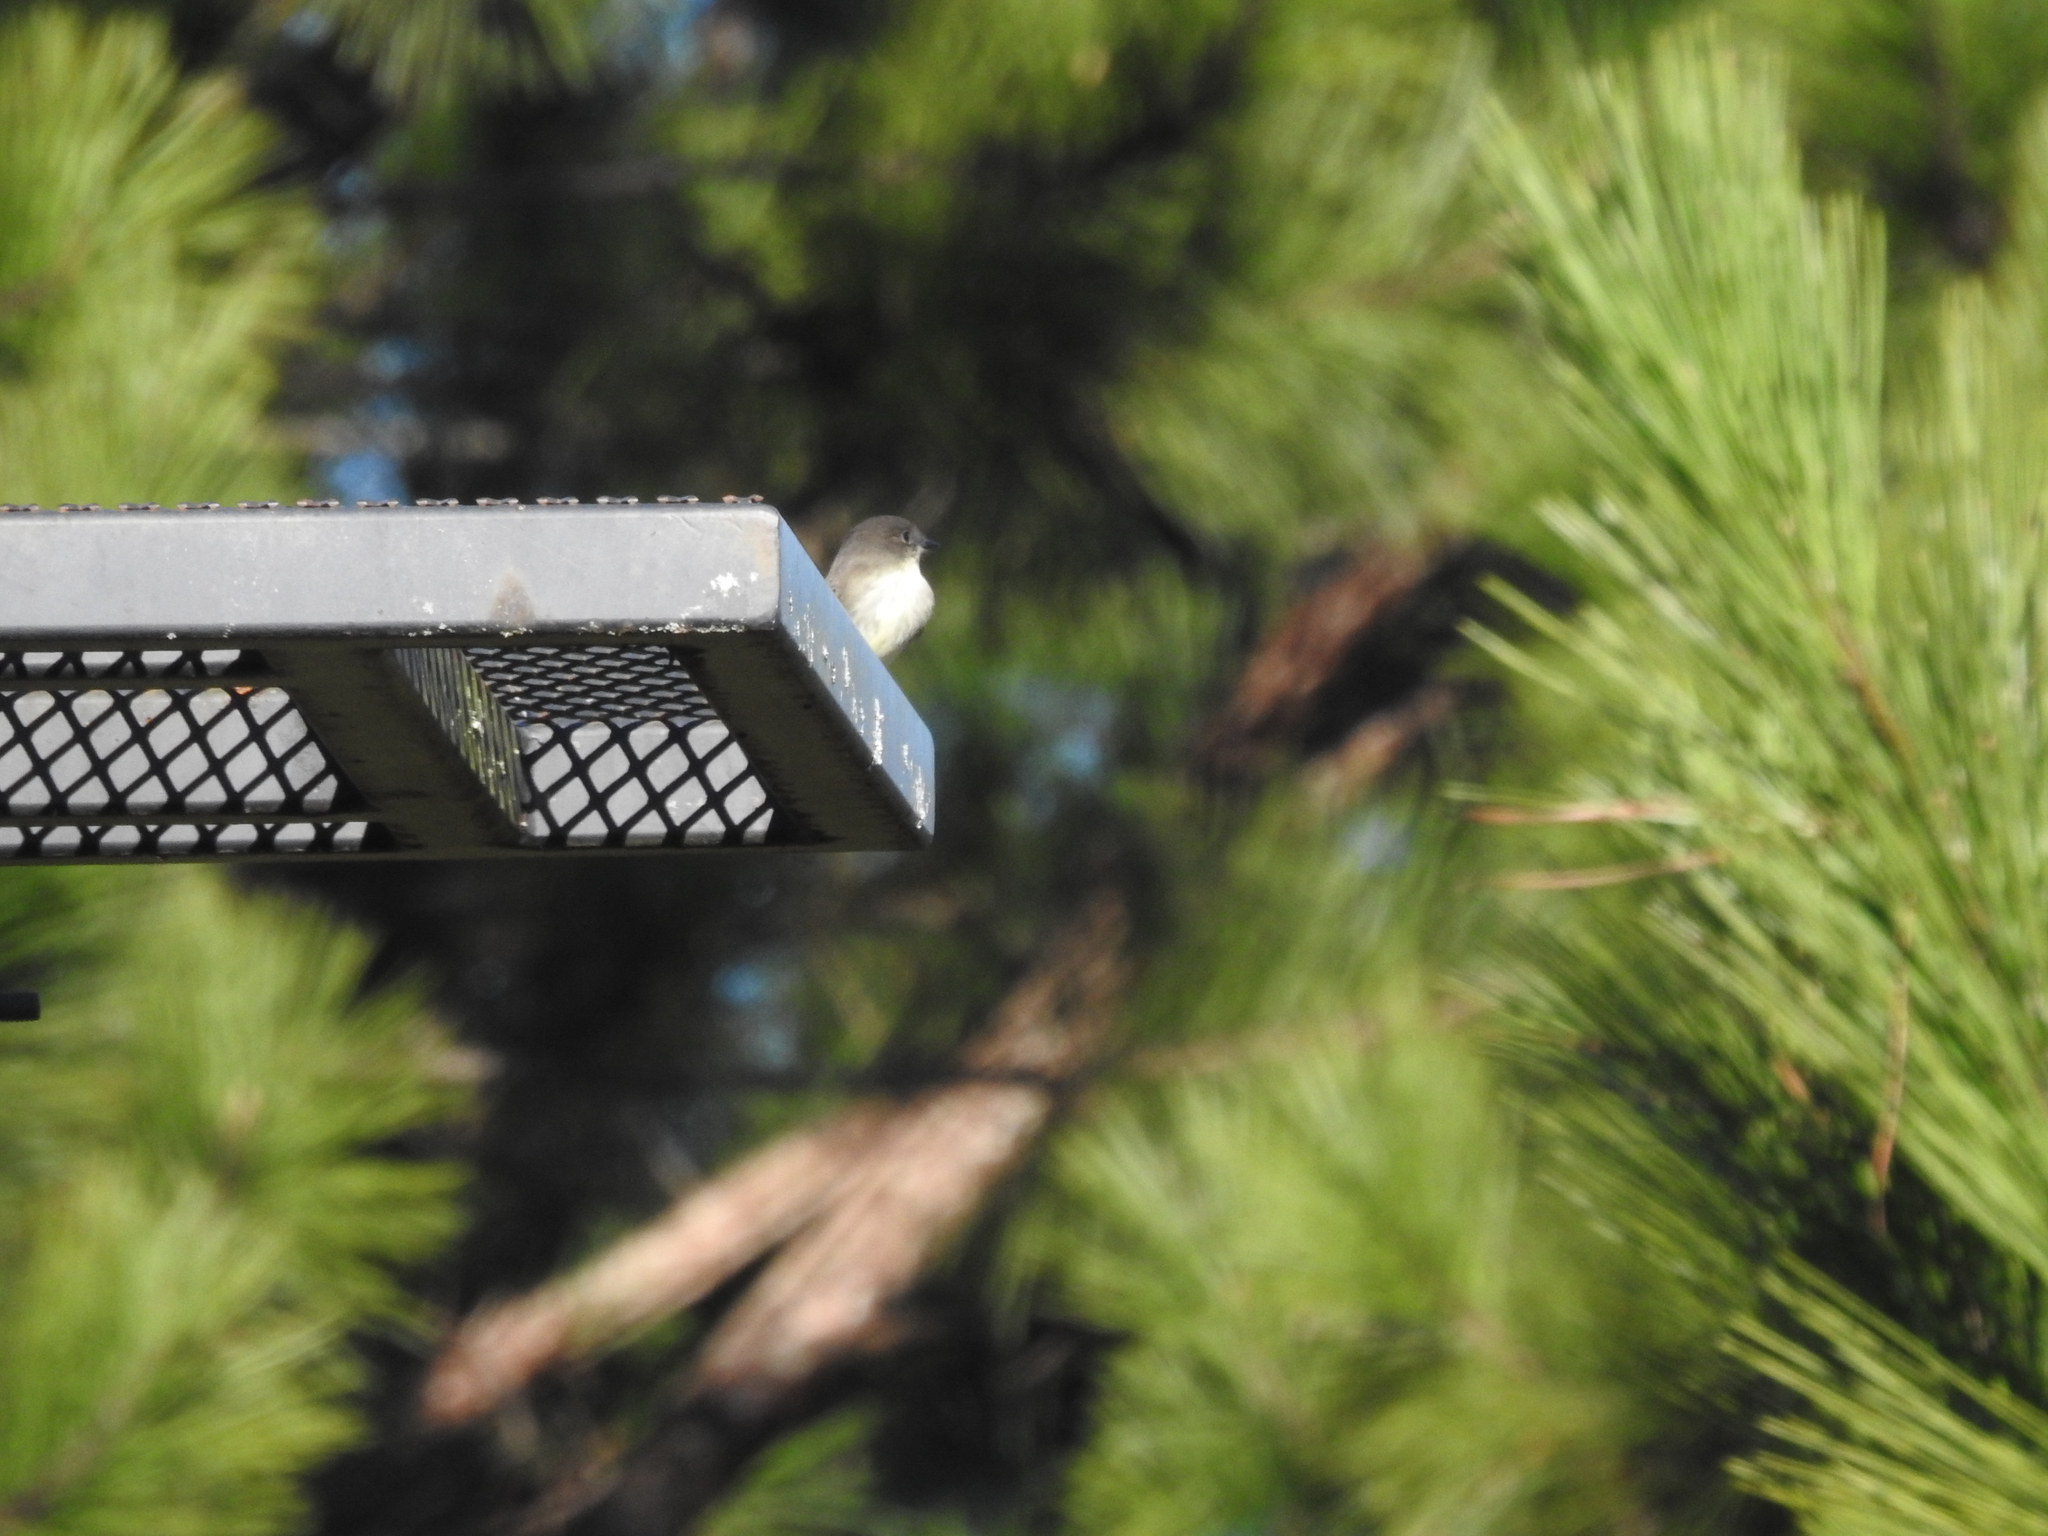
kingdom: Animalia
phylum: Chordata
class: Aves
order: Passeriformes
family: Tyrannidae
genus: Sayornis
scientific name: Sayornis phoebe
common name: Eastern phoebe
